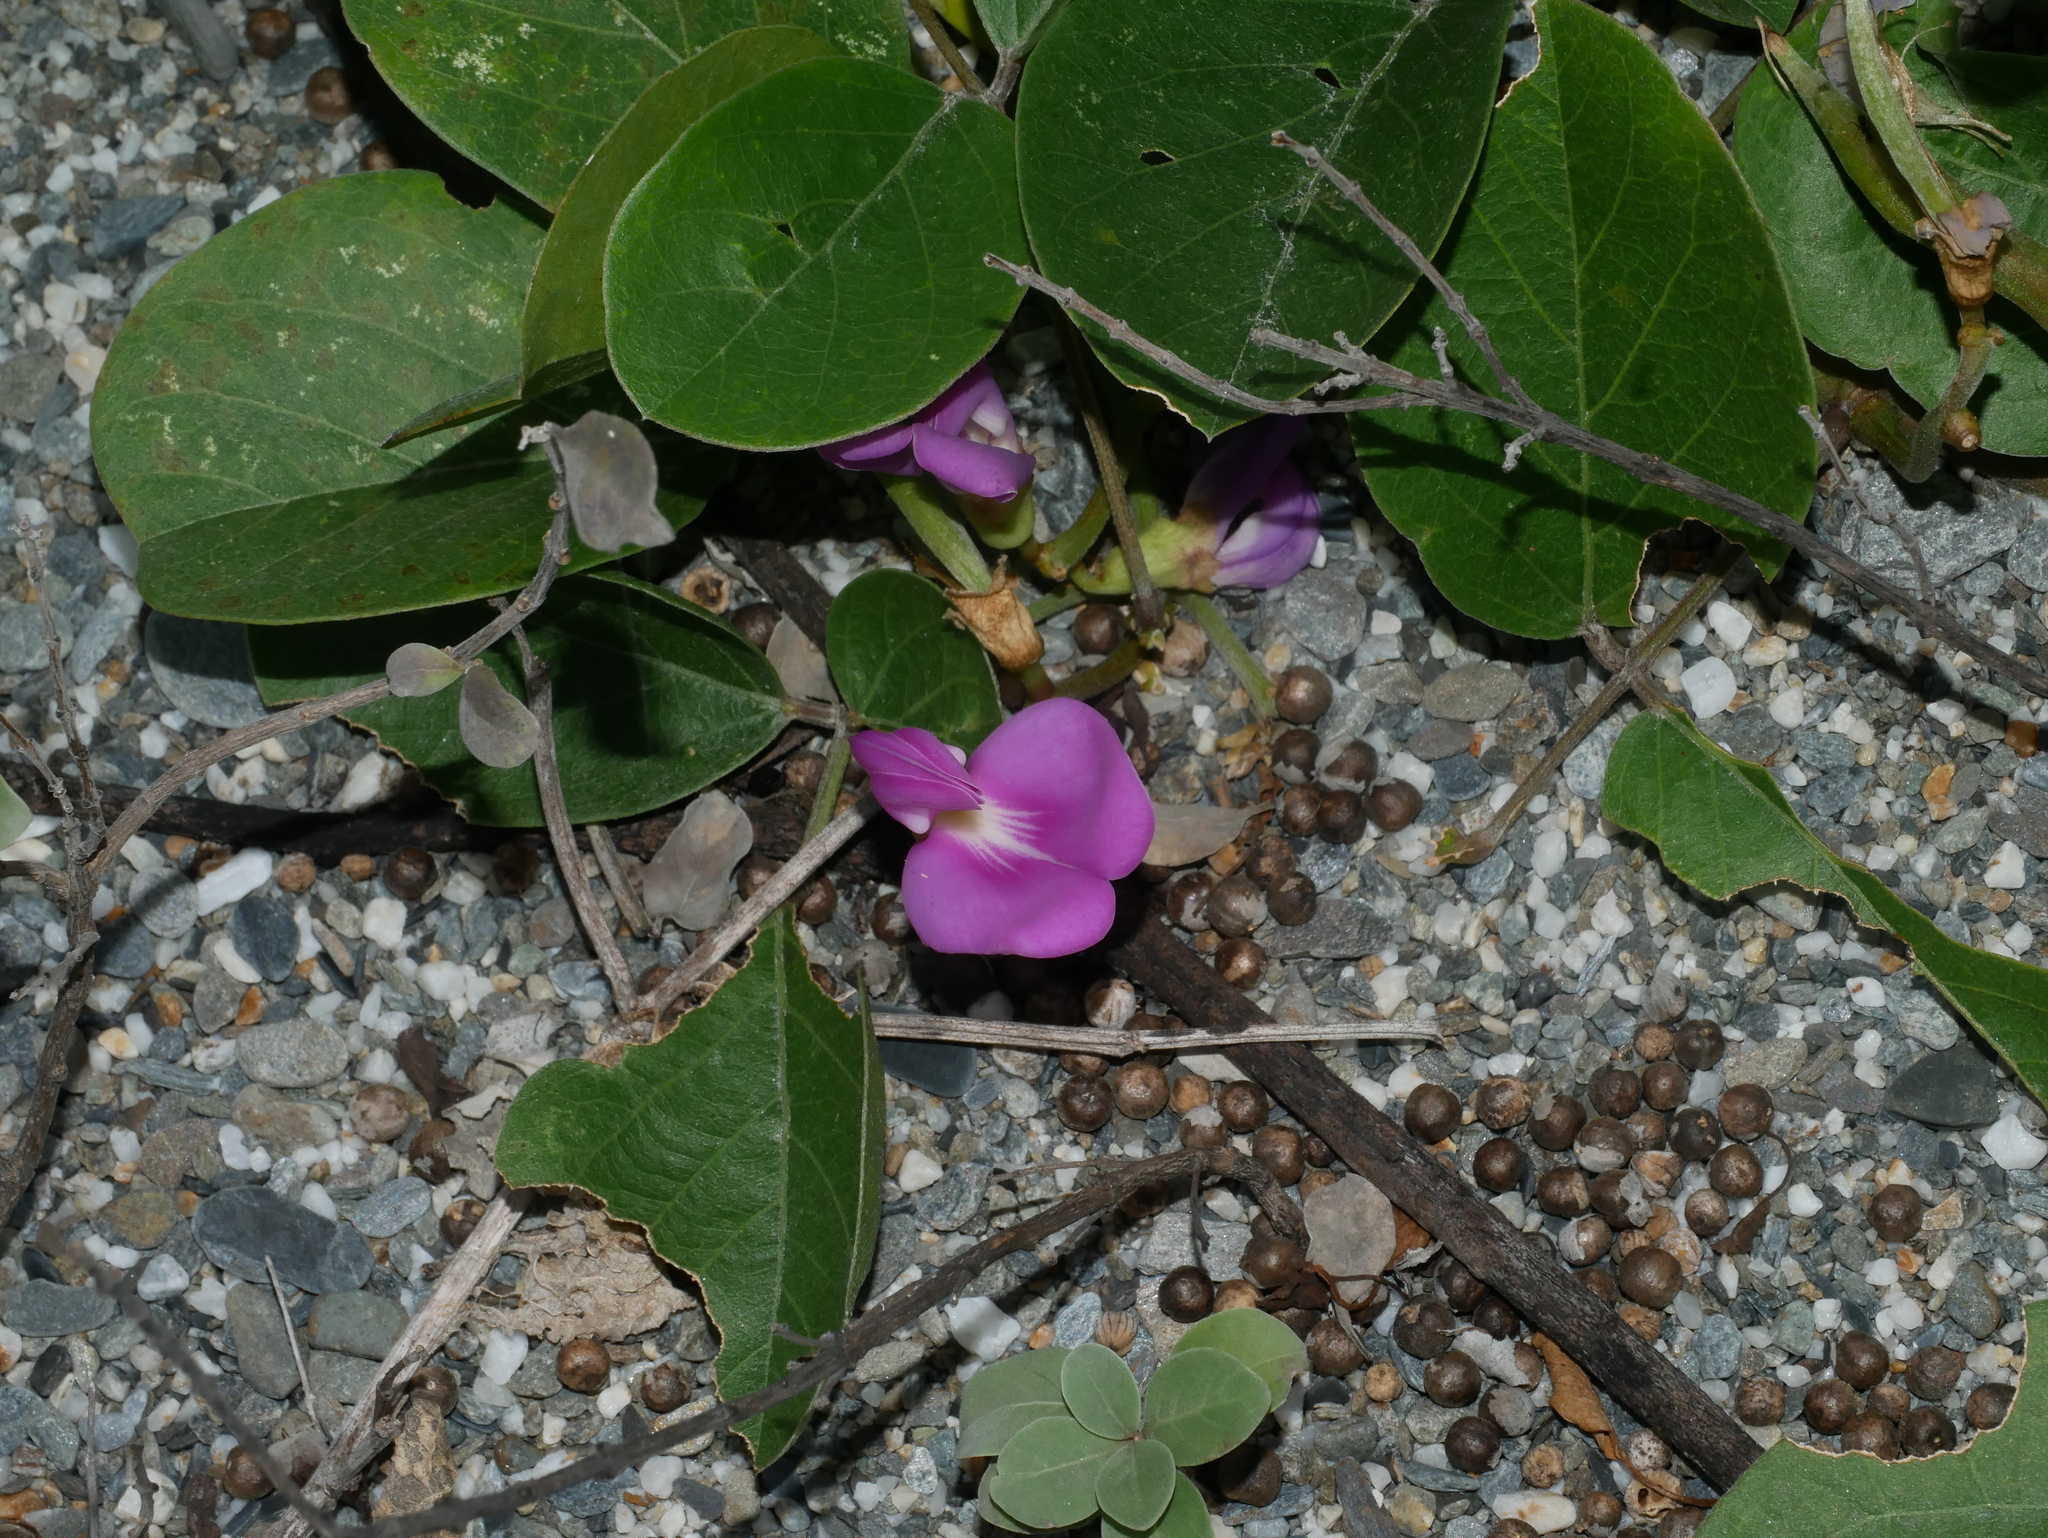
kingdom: Plantae
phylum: Tracheophyta
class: Magnoliopsida
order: Fabales
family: Fabaceae
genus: Canavalia
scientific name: Canavalia rosea
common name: Beach-bean
